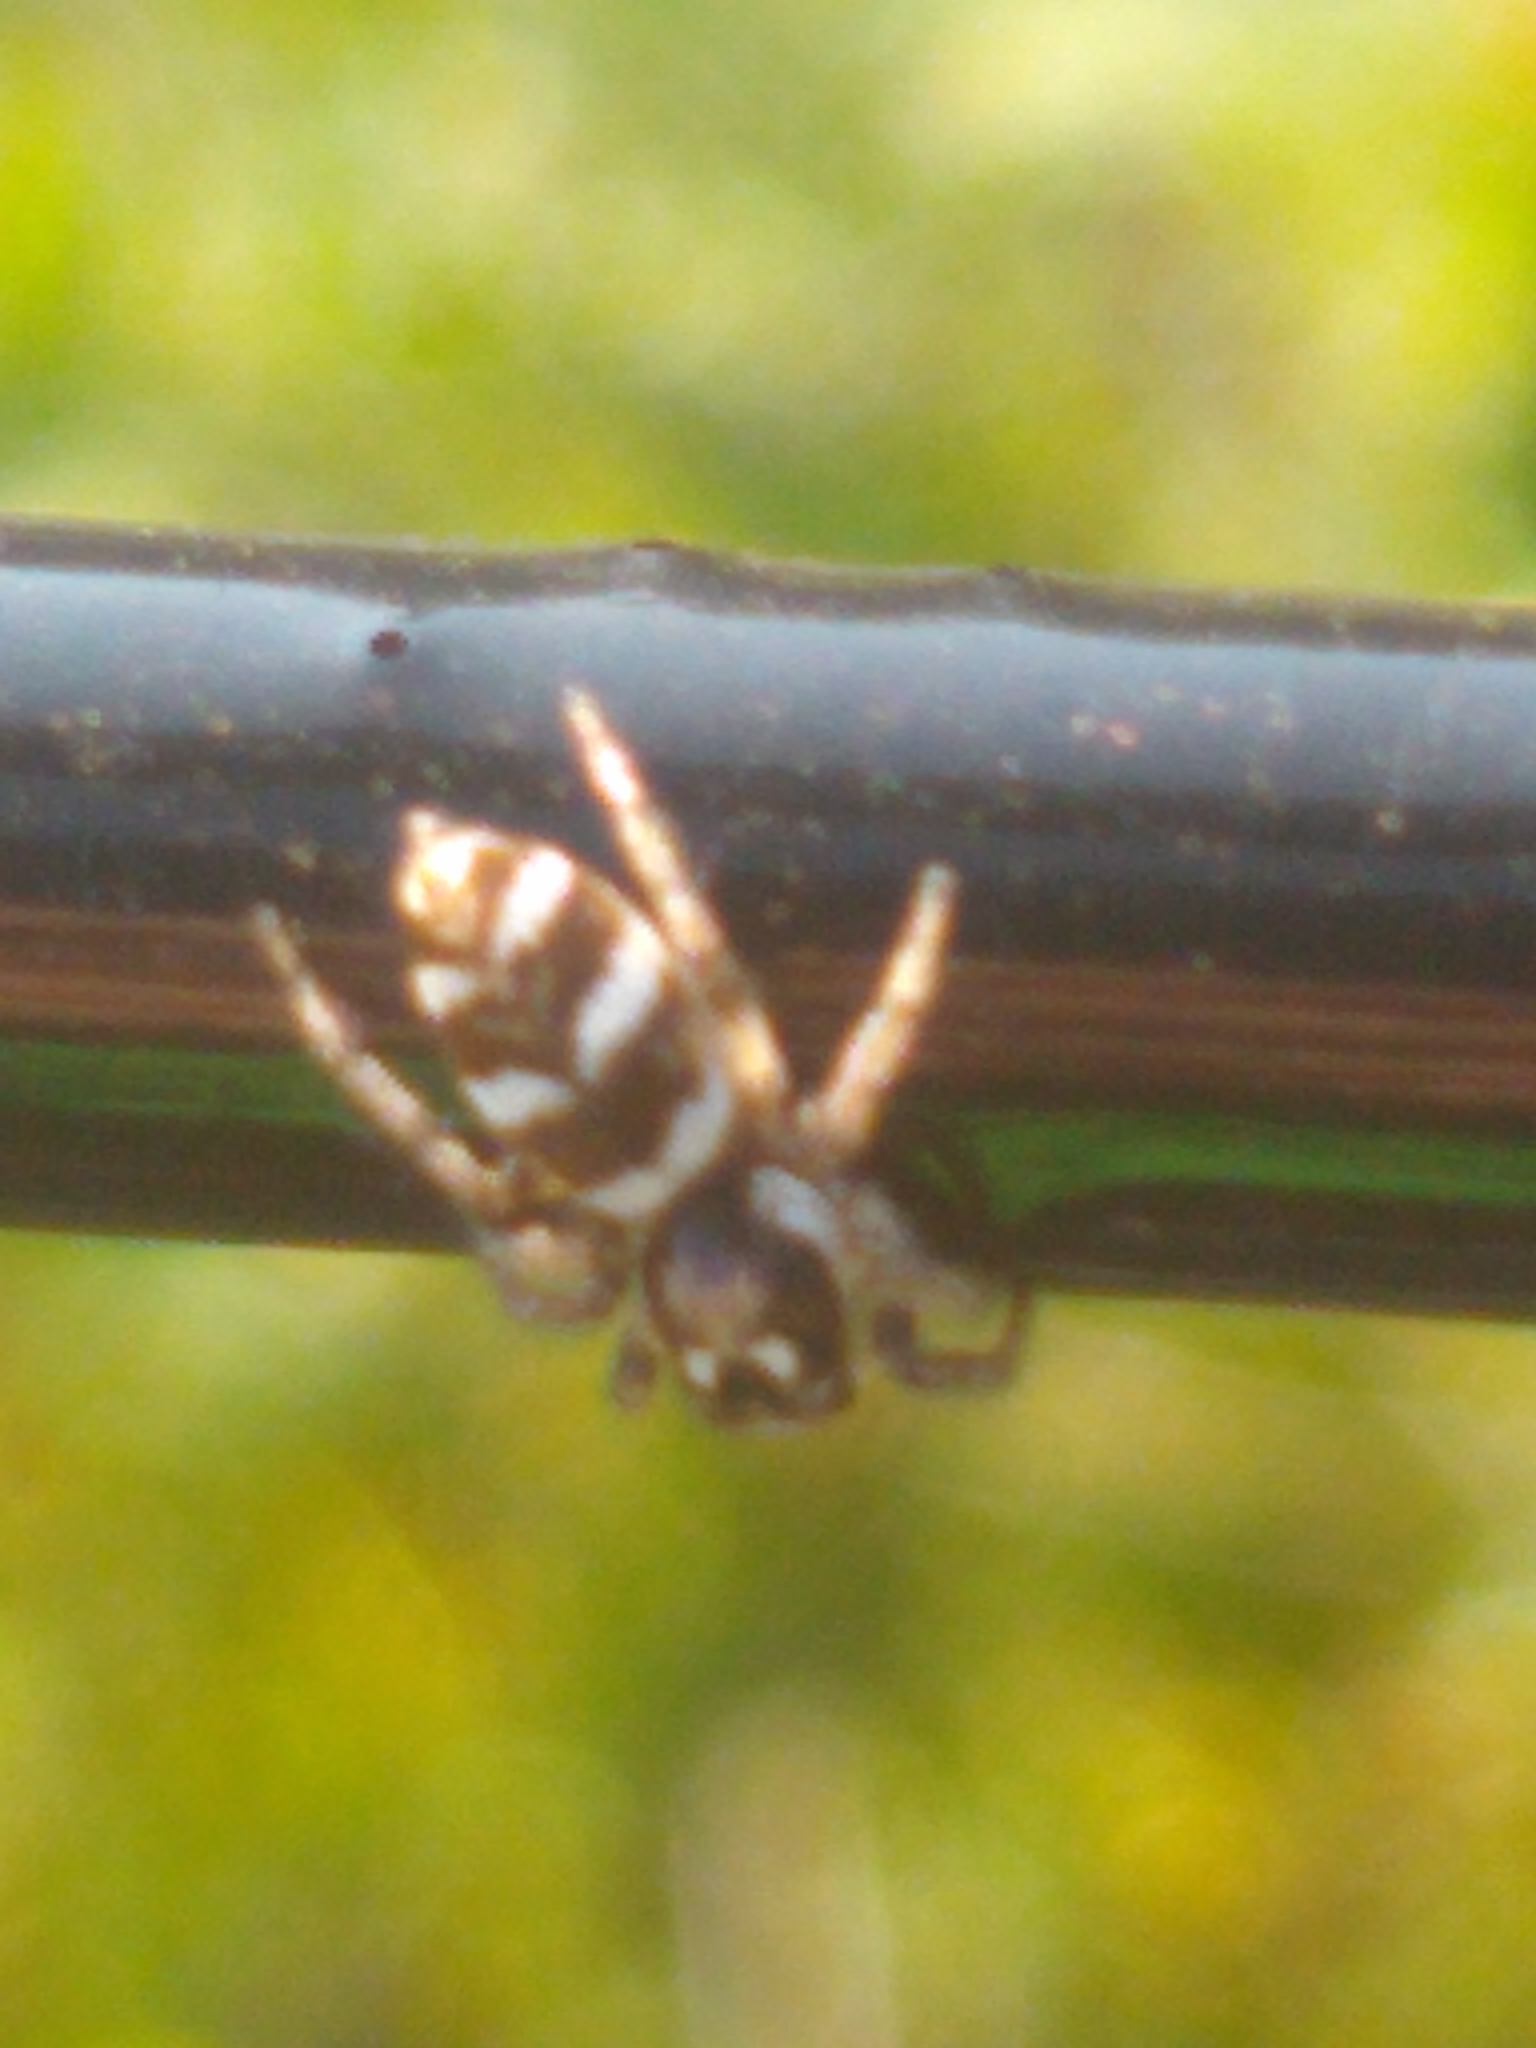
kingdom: Animalia
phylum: Arthropoda
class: Arachnida
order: Araneae
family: Salticidae
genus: Salticus
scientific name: Salticus scenicus
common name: Zebra jumper
